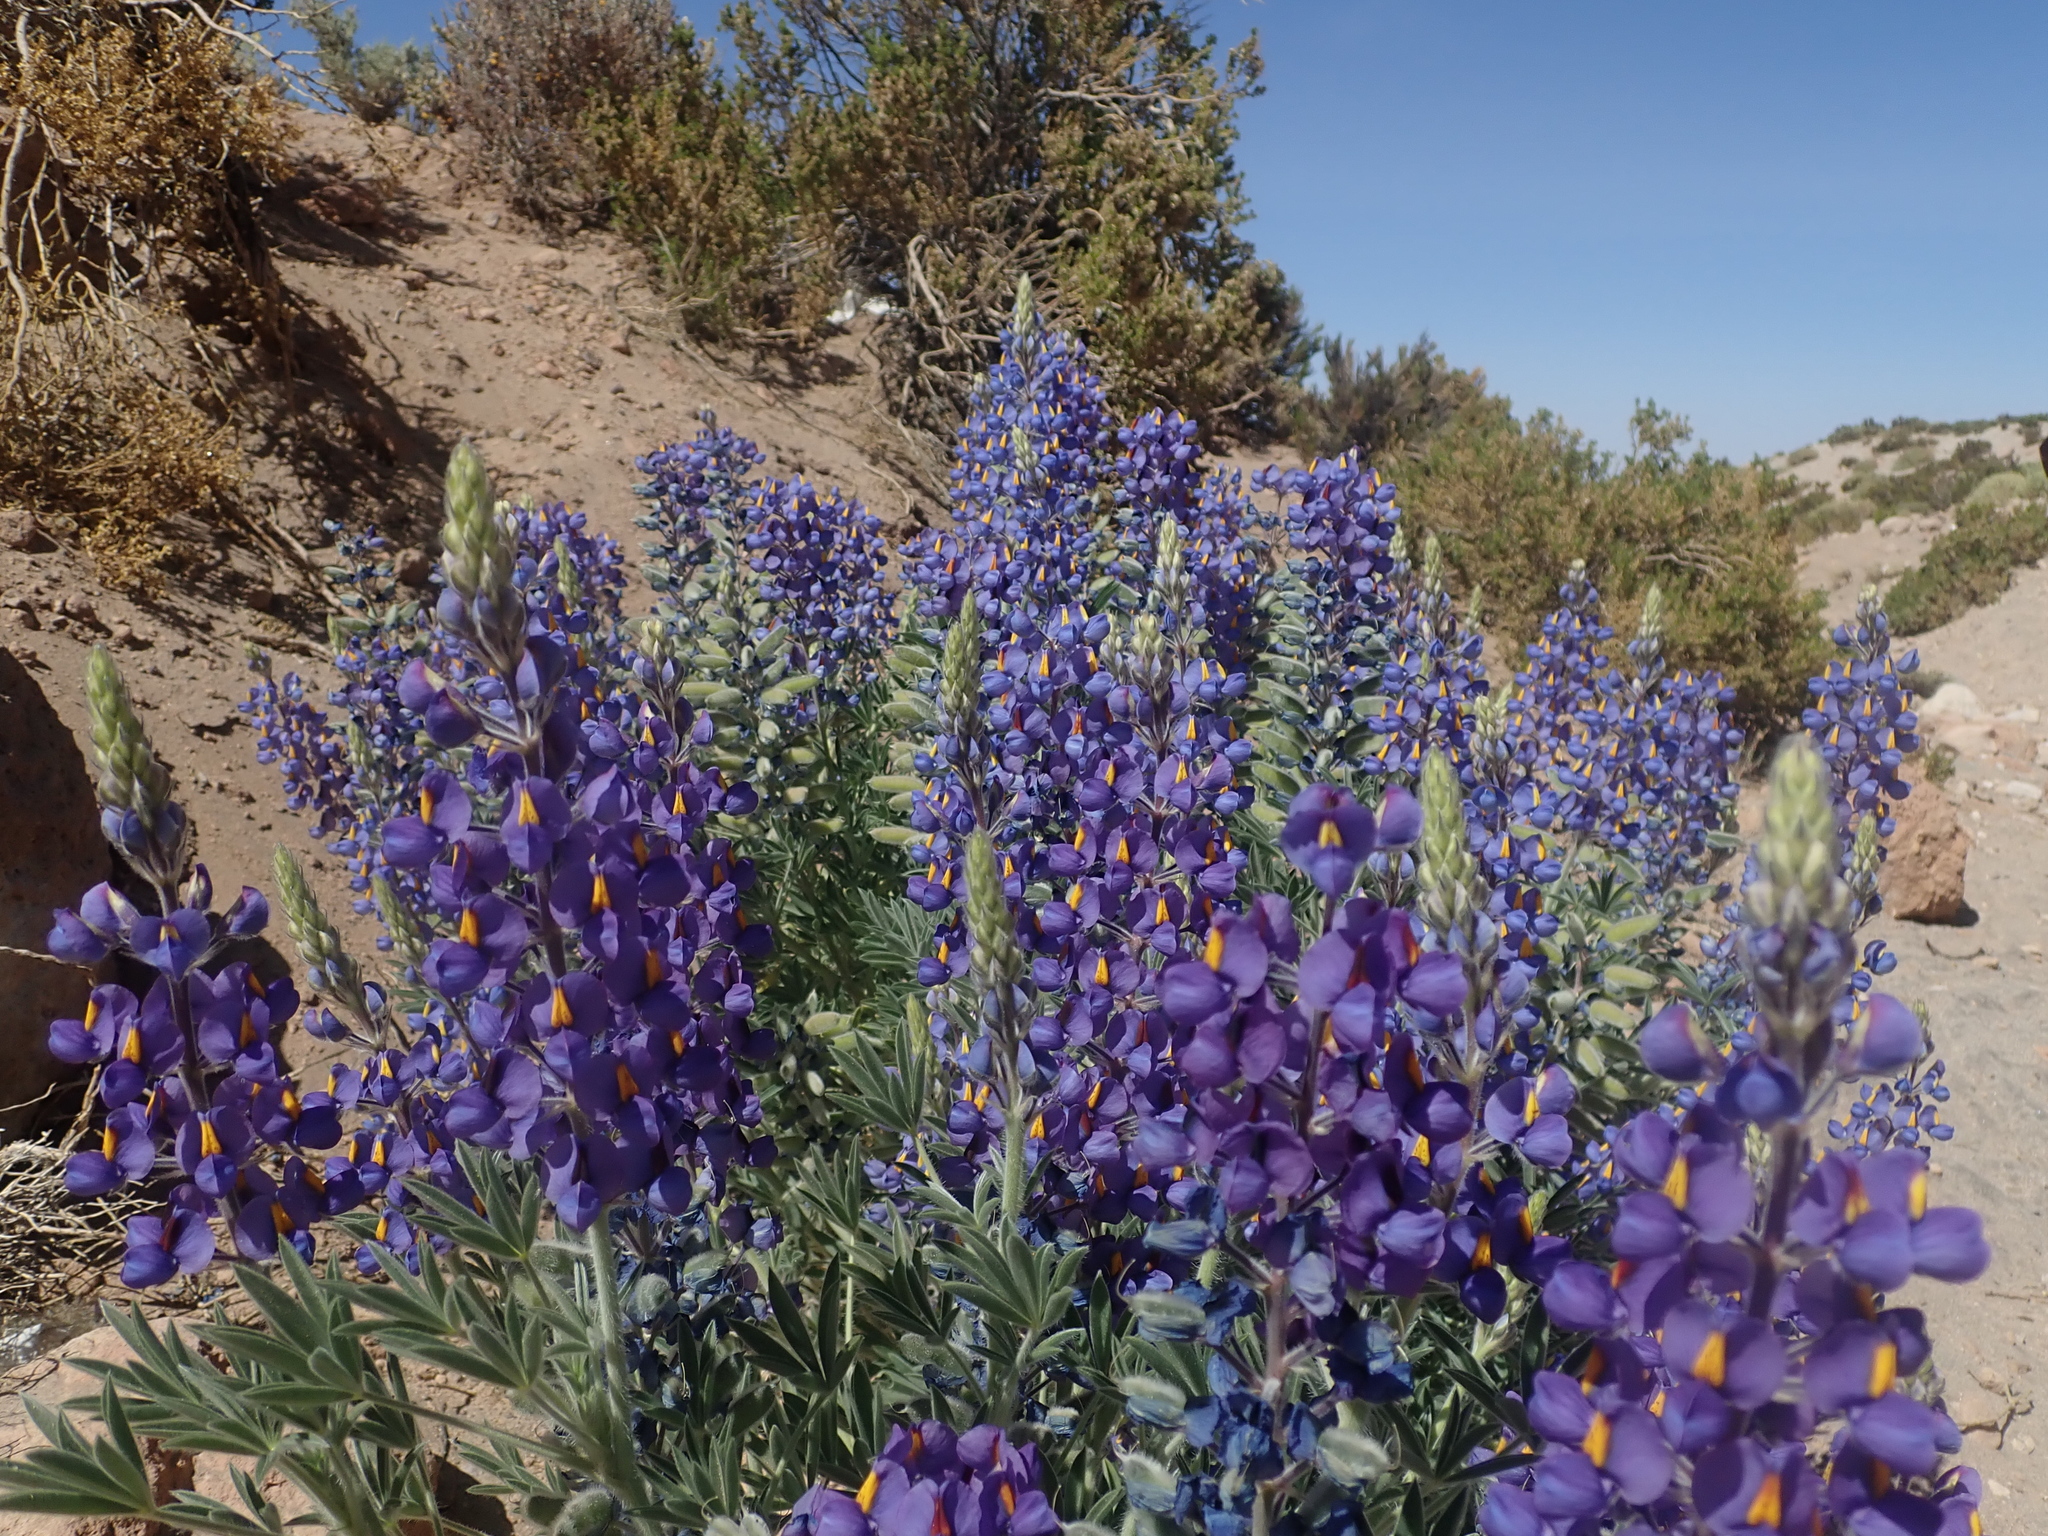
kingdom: Plantae
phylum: Tracheophyta
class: Magnoliopsida
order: Fabales
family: Fabaceae
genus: Lupinus
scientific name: Lupinus oreophilus
